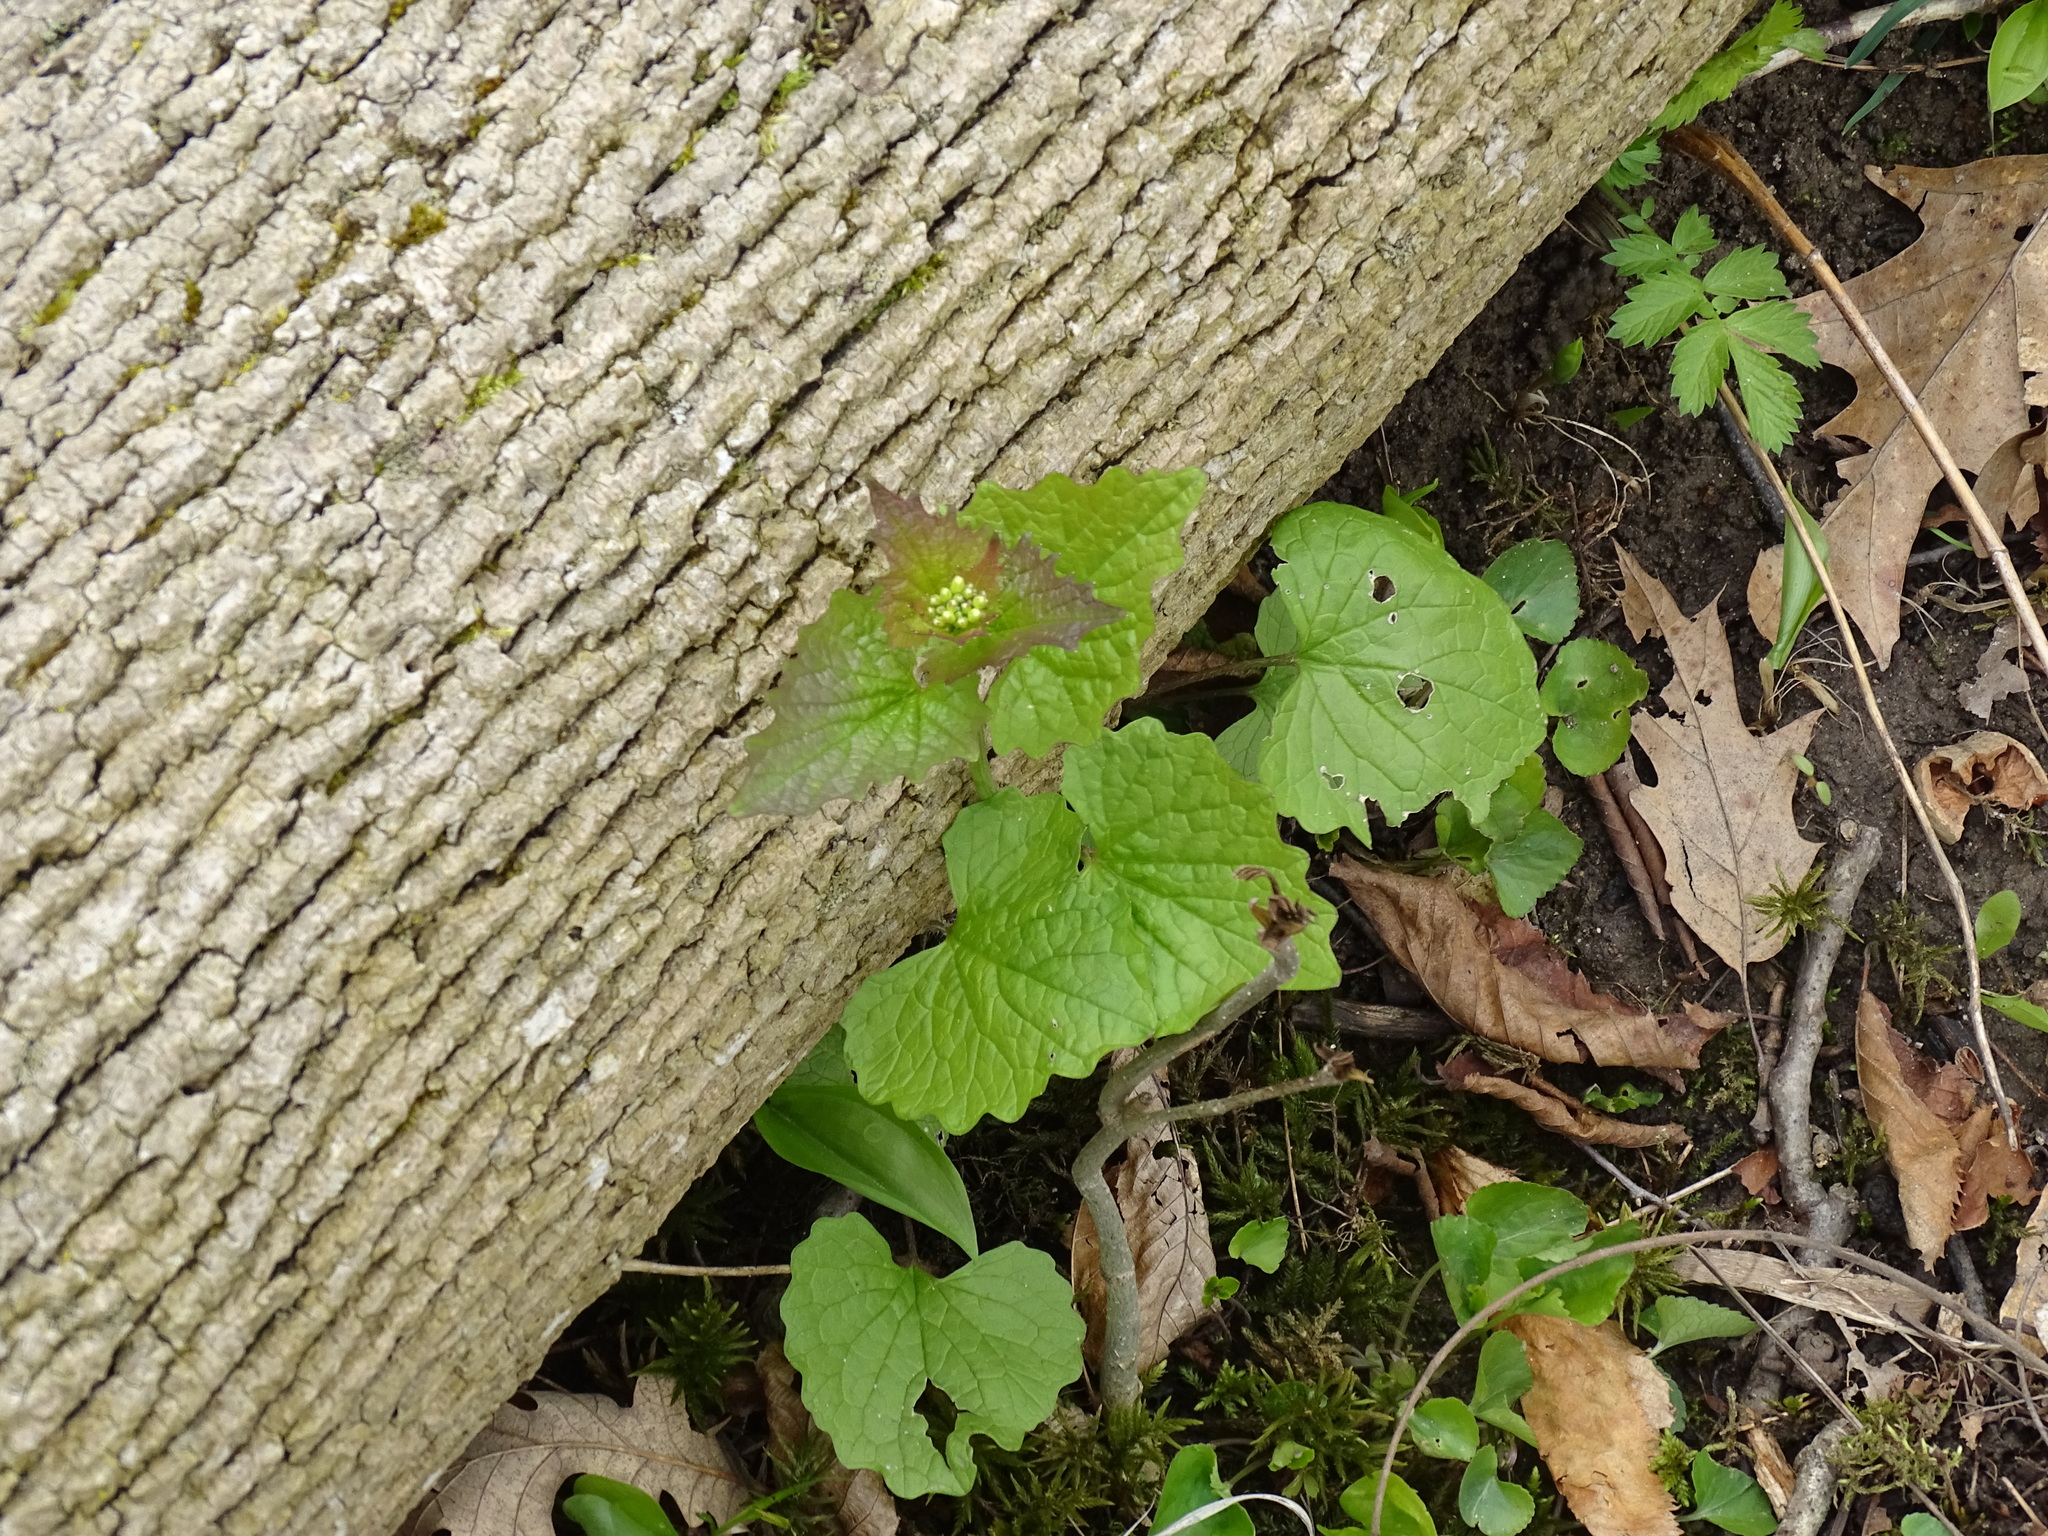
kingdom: Plantae
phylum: Tracheophyta
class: Magnoliopsida
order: Brassicales
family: Brassicaceae
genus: Alliaria
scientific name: Alliaria petiolata
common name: Garlic mustard
